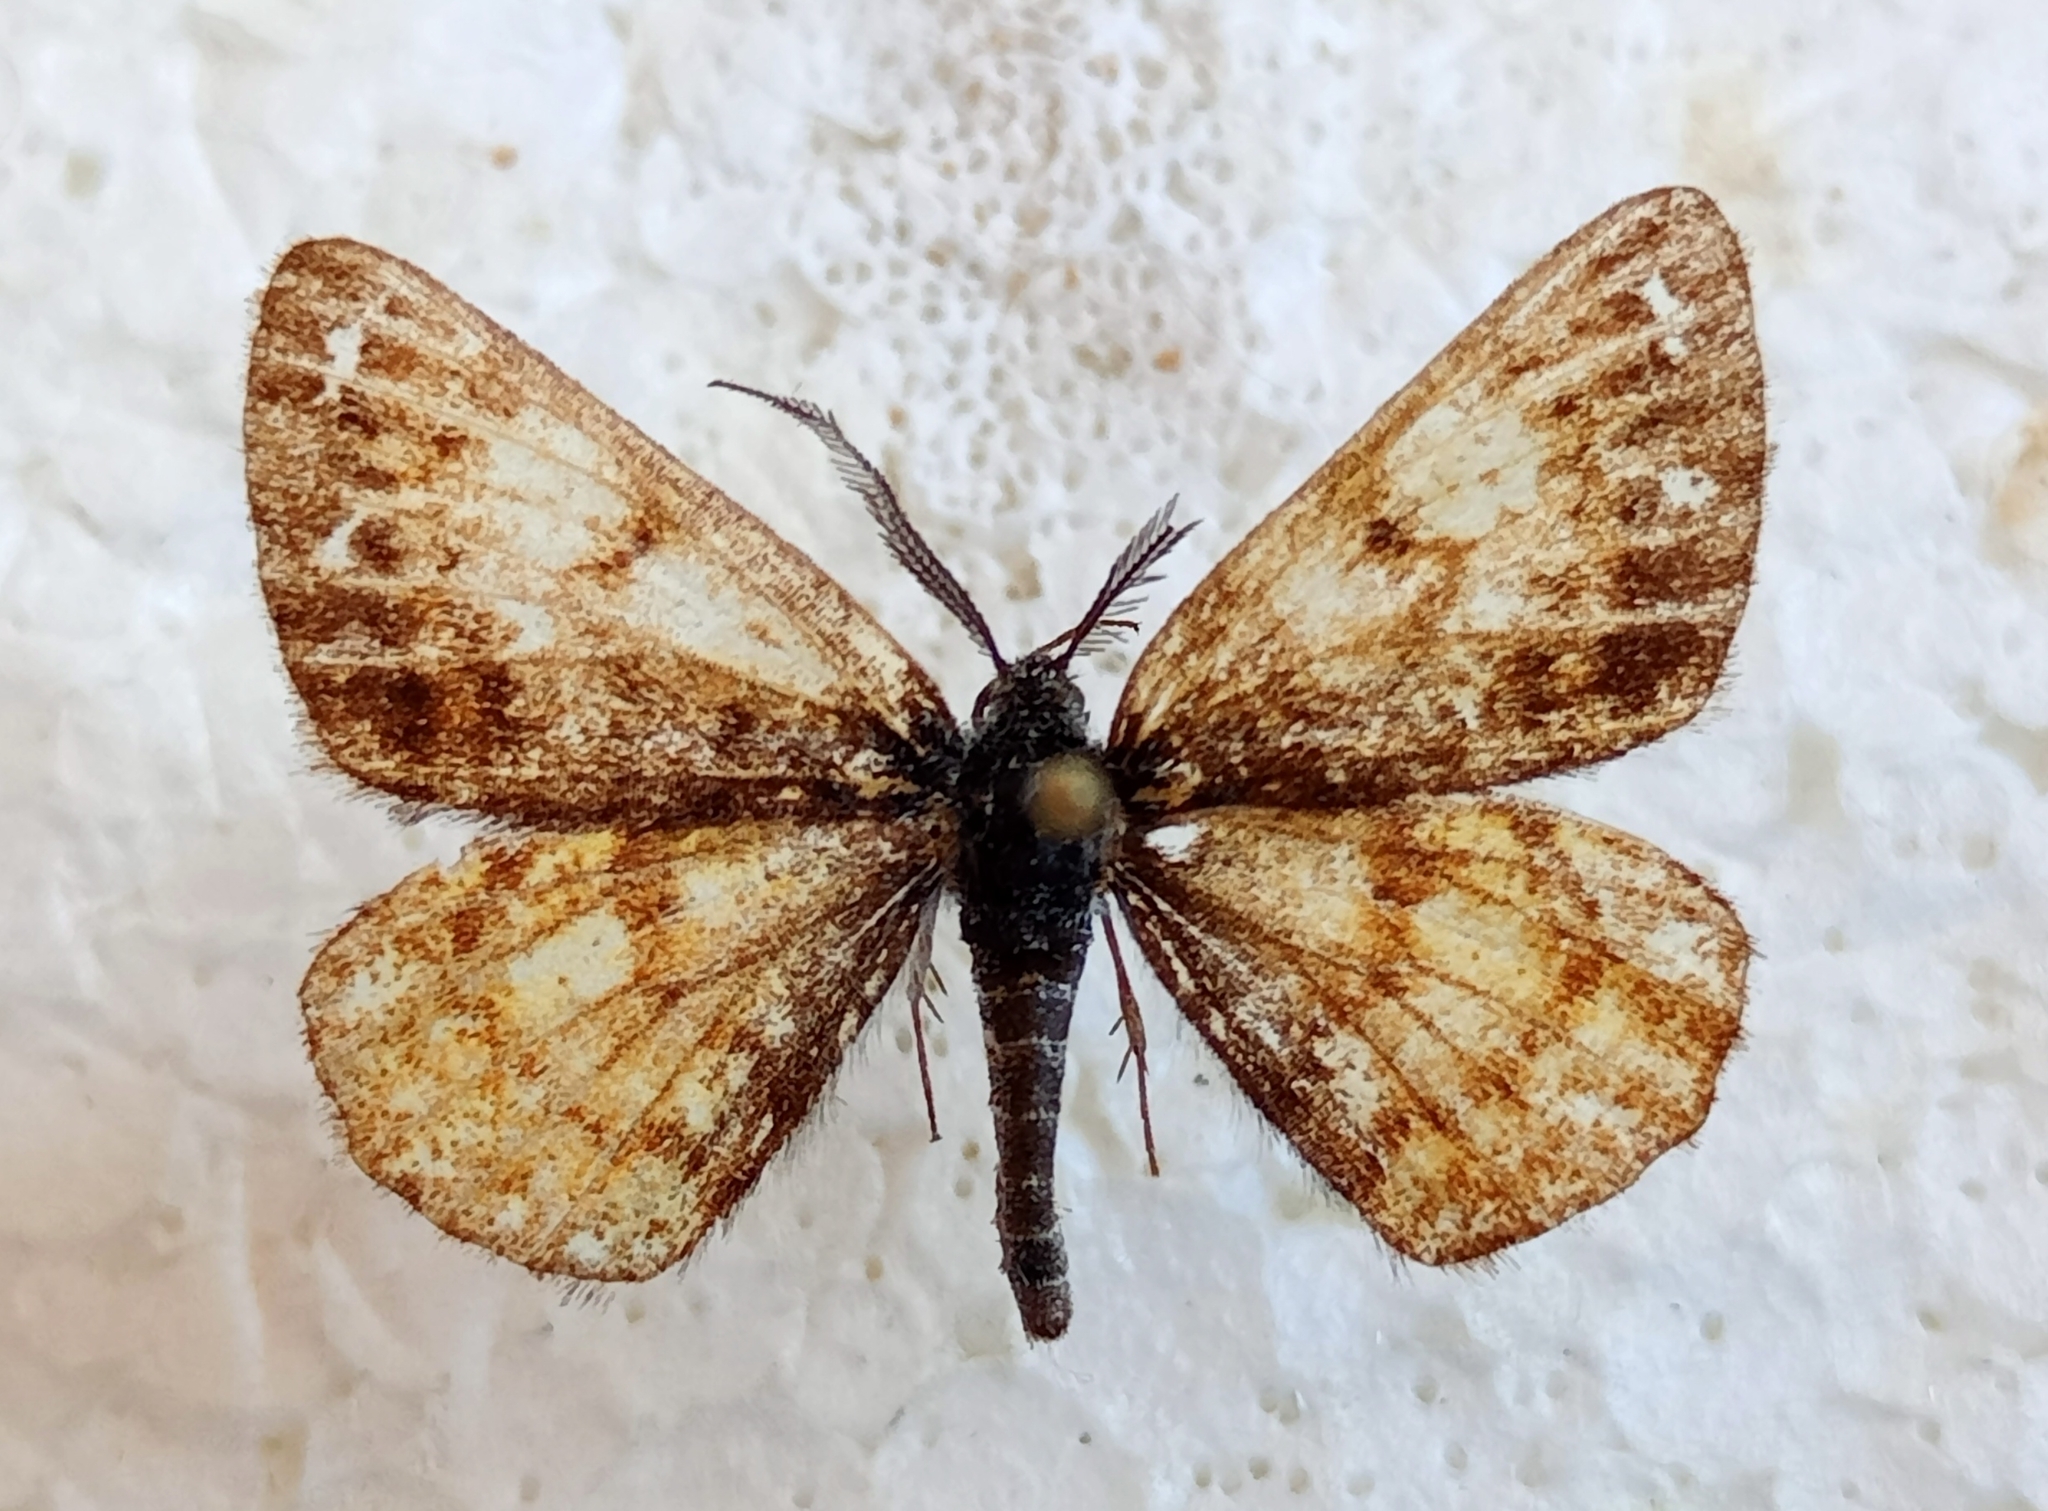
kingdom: Animalia
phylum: Arthropoda
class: Insecta
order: Lepidoptera
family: Geometridae
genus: Isturgia
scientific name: Isturgia famula
